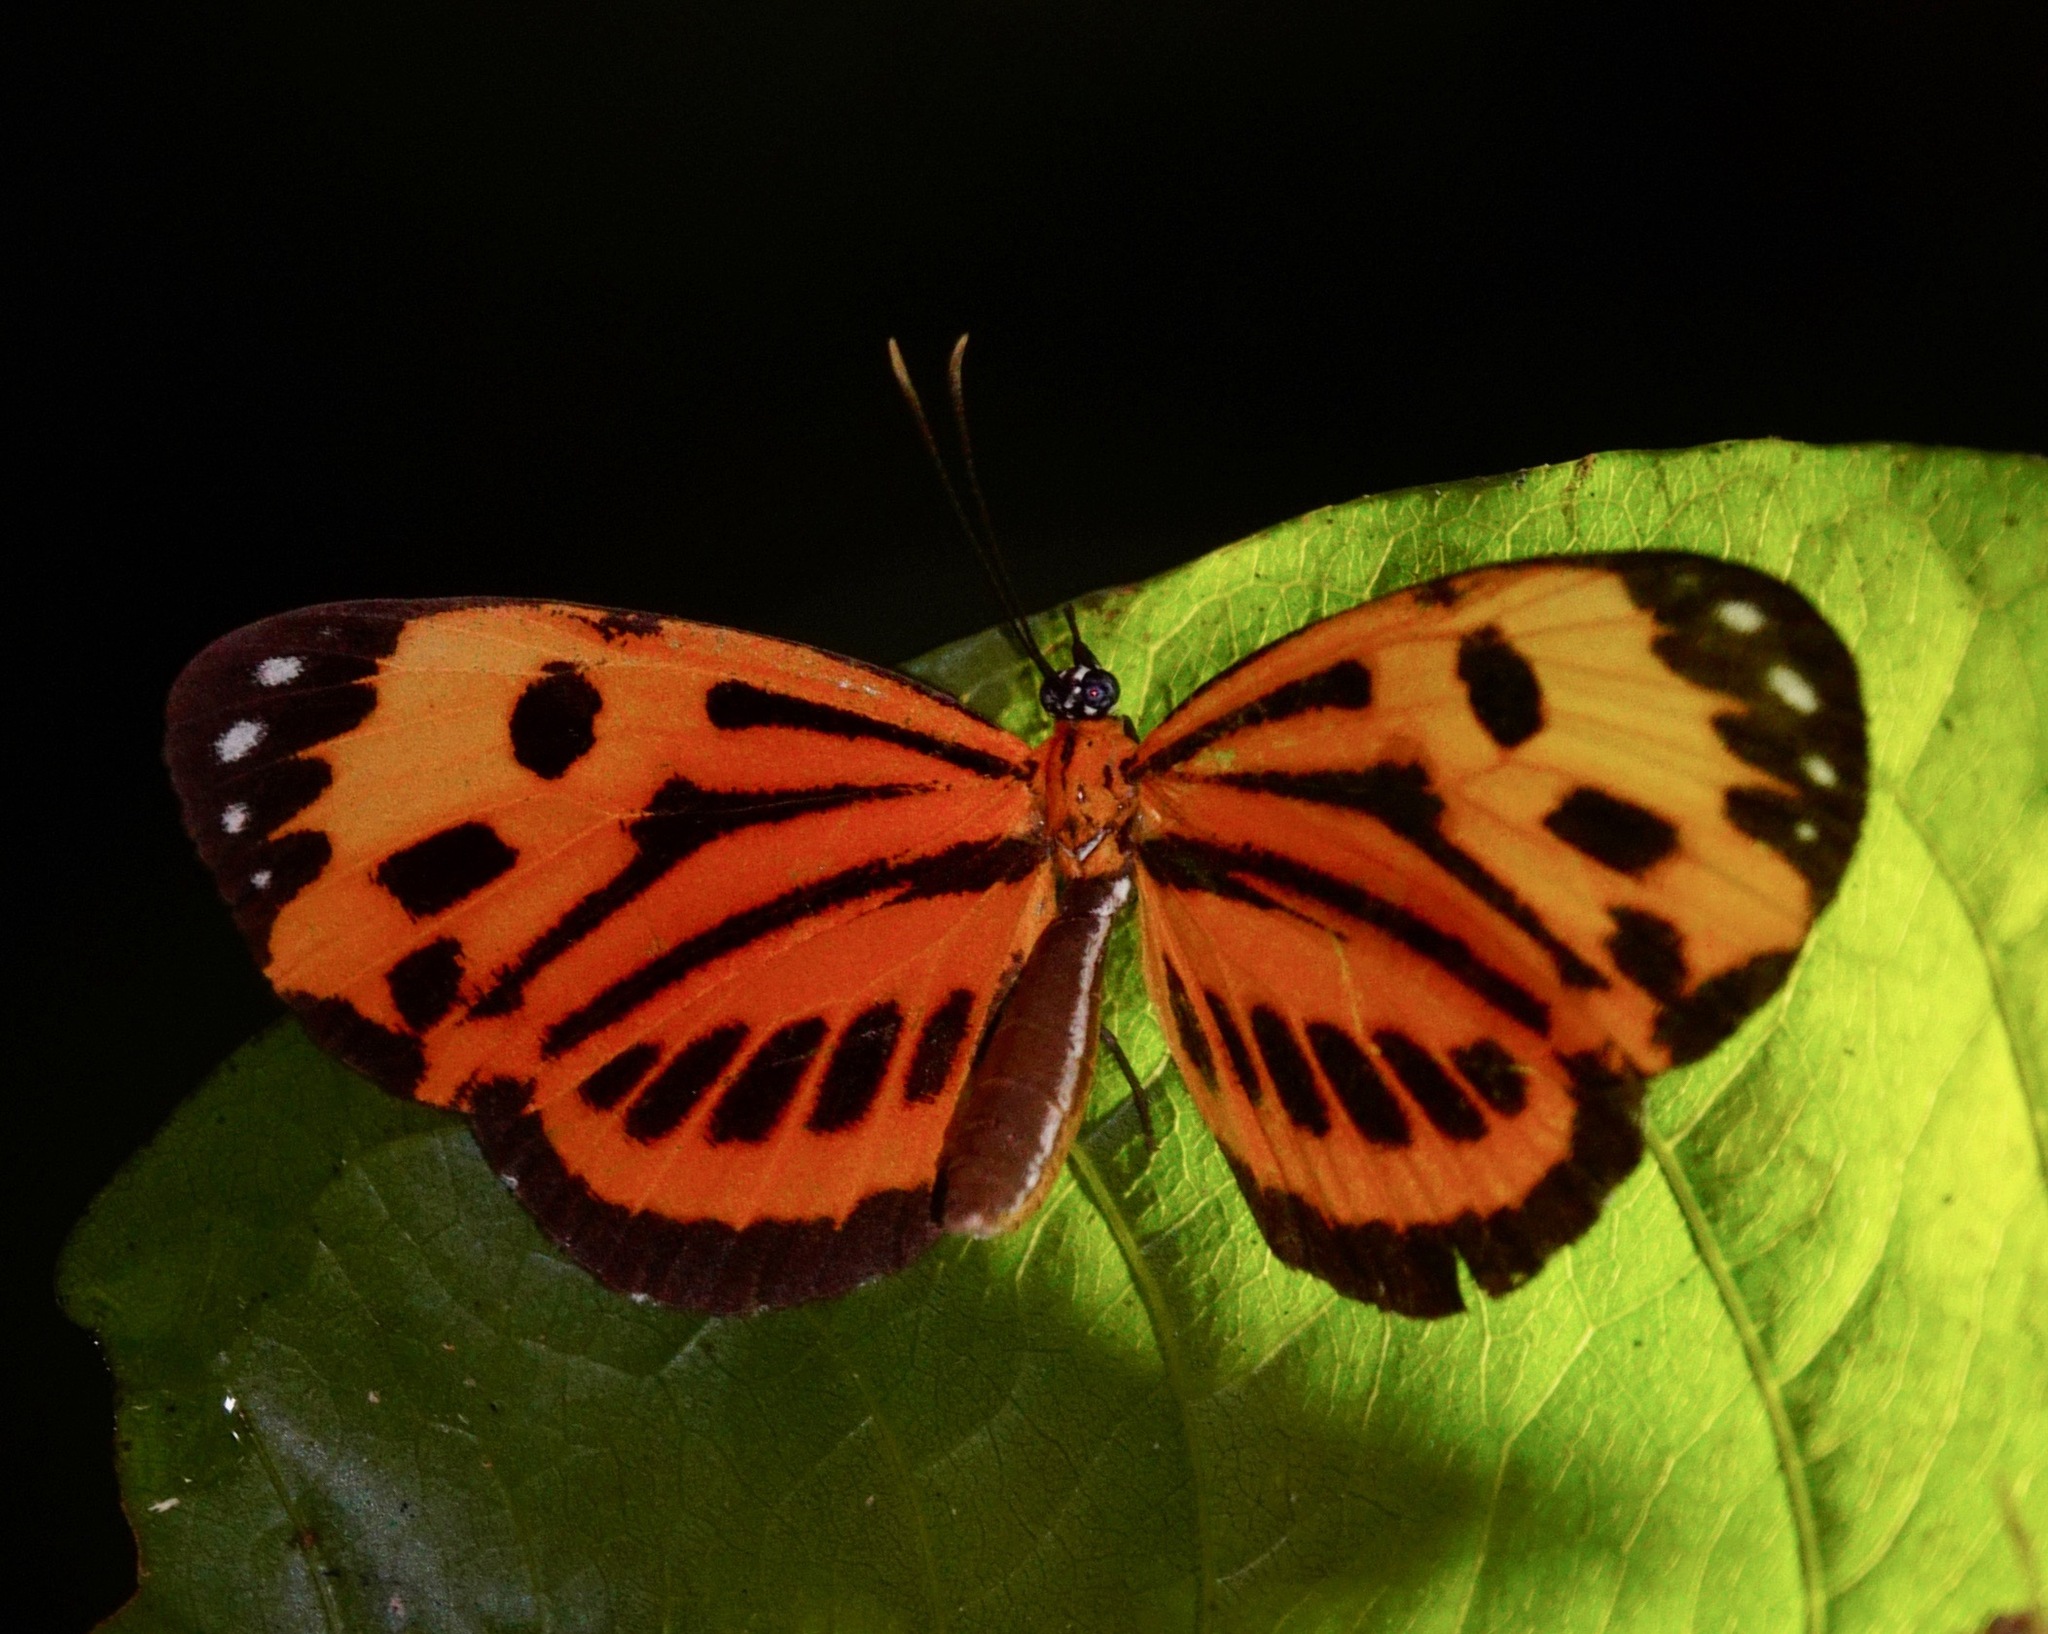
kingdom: Animalia
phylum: Arthropoda
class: Insecta
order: Lepidoptera
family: Riodinidae
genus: Stalachtis
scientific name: Stalachtis calliope
